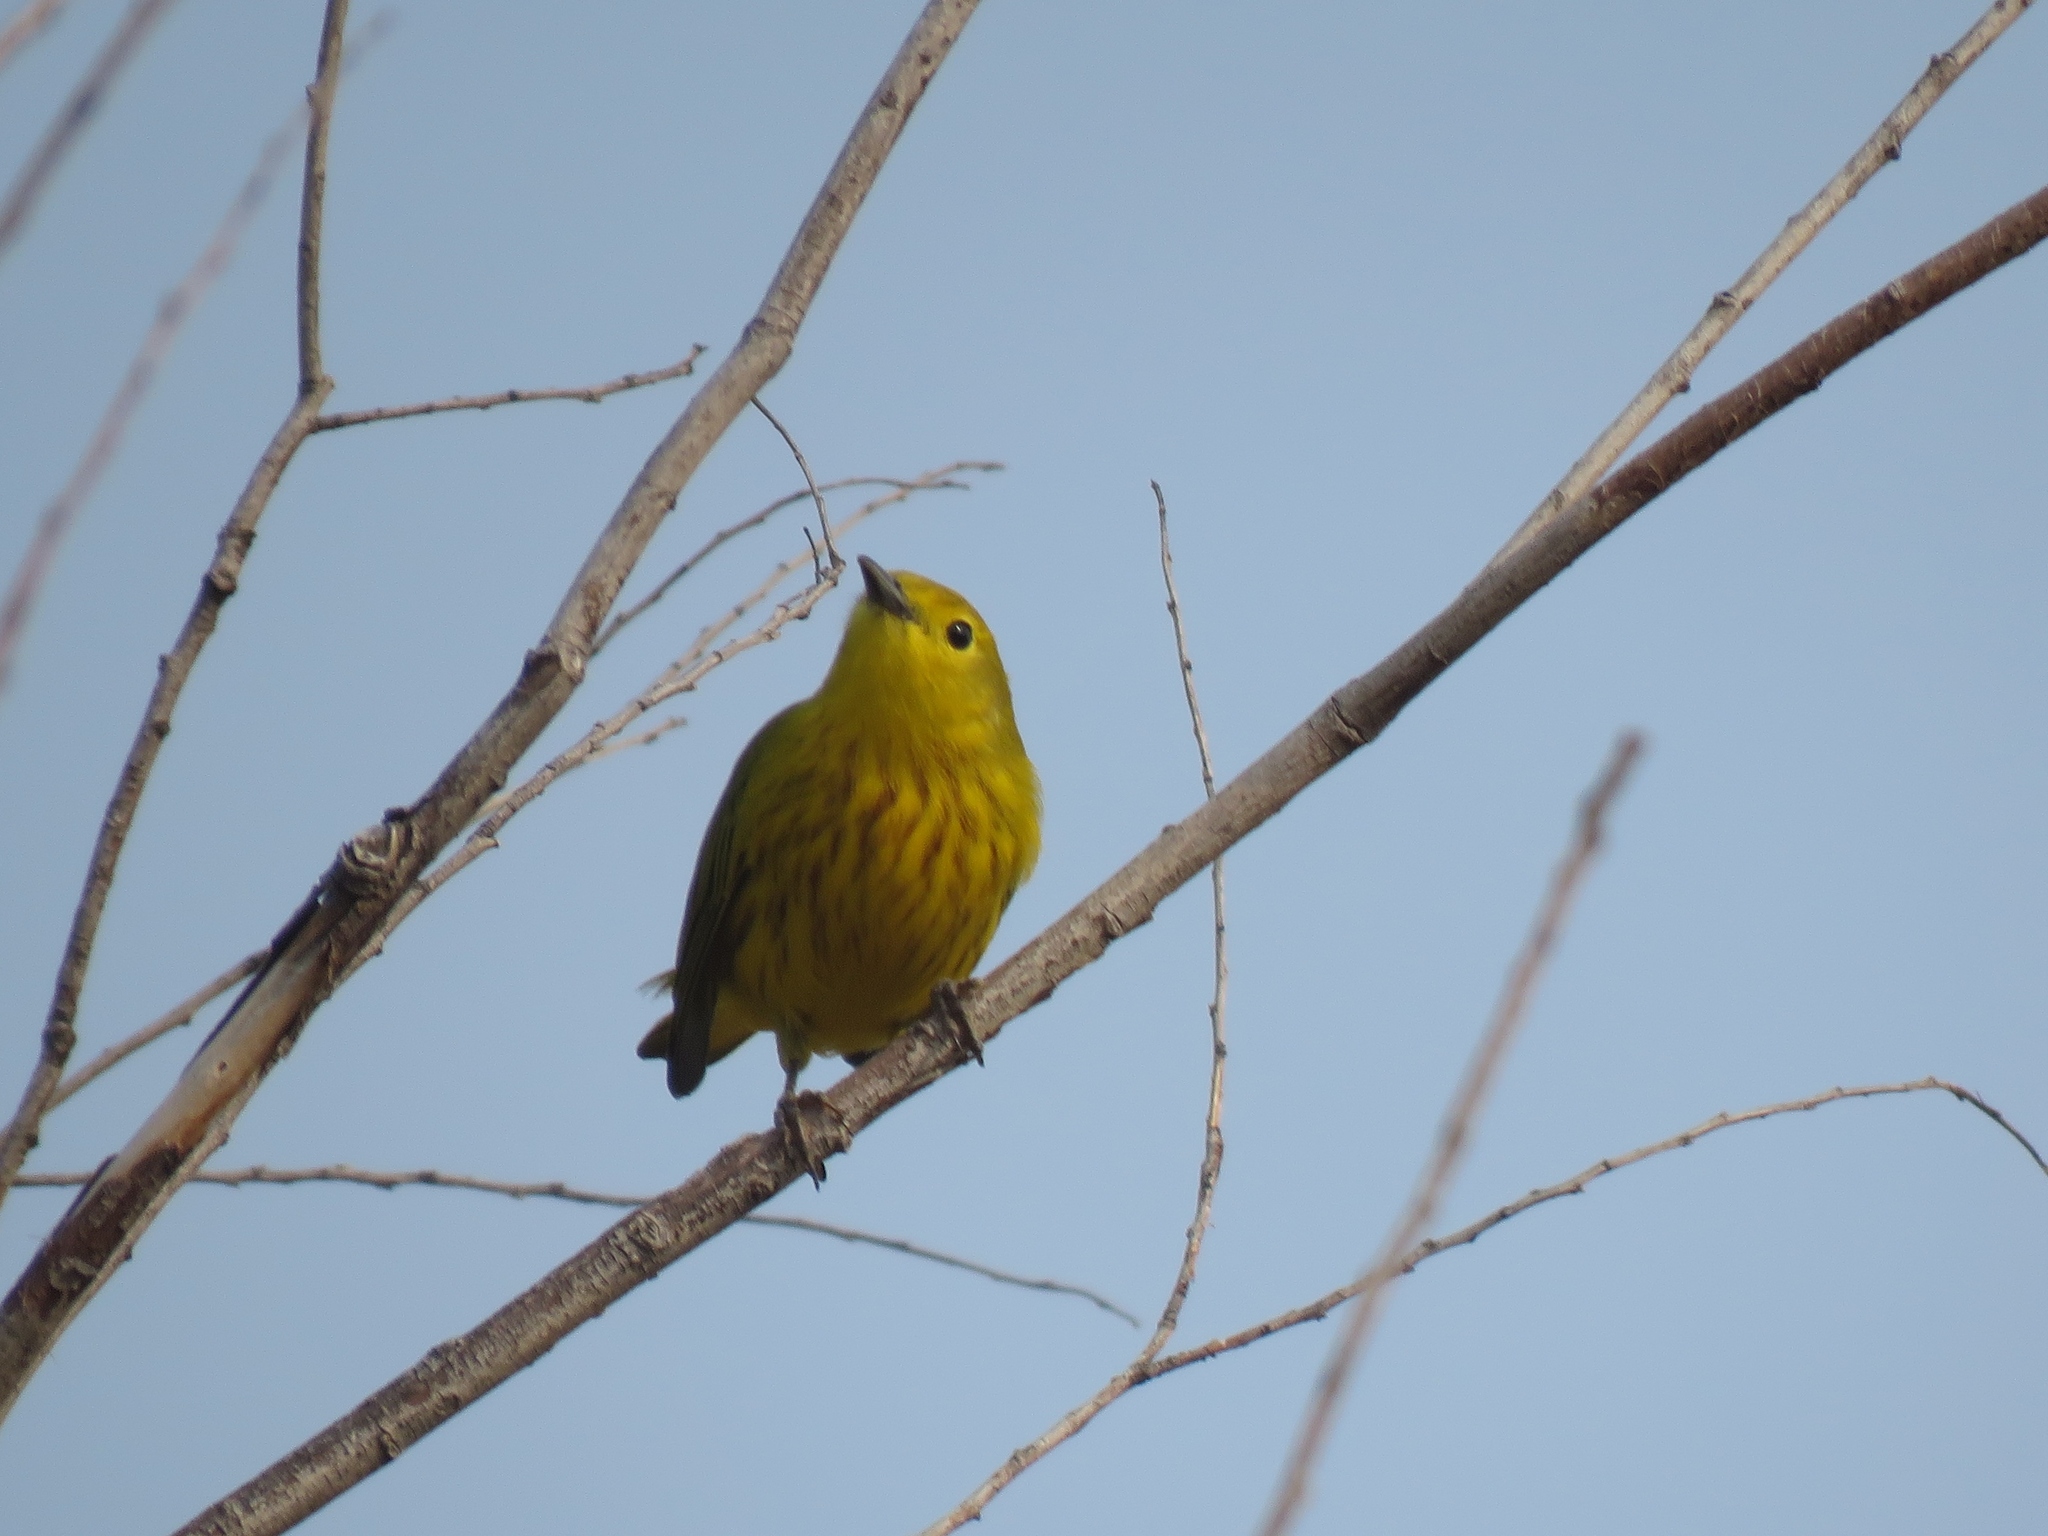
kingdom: Animalia
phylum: Chordata
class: Aves
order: Passeriformes
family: Parulidae
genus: Setophaga
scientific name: Setophaga petechia
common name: Yellow warbler
